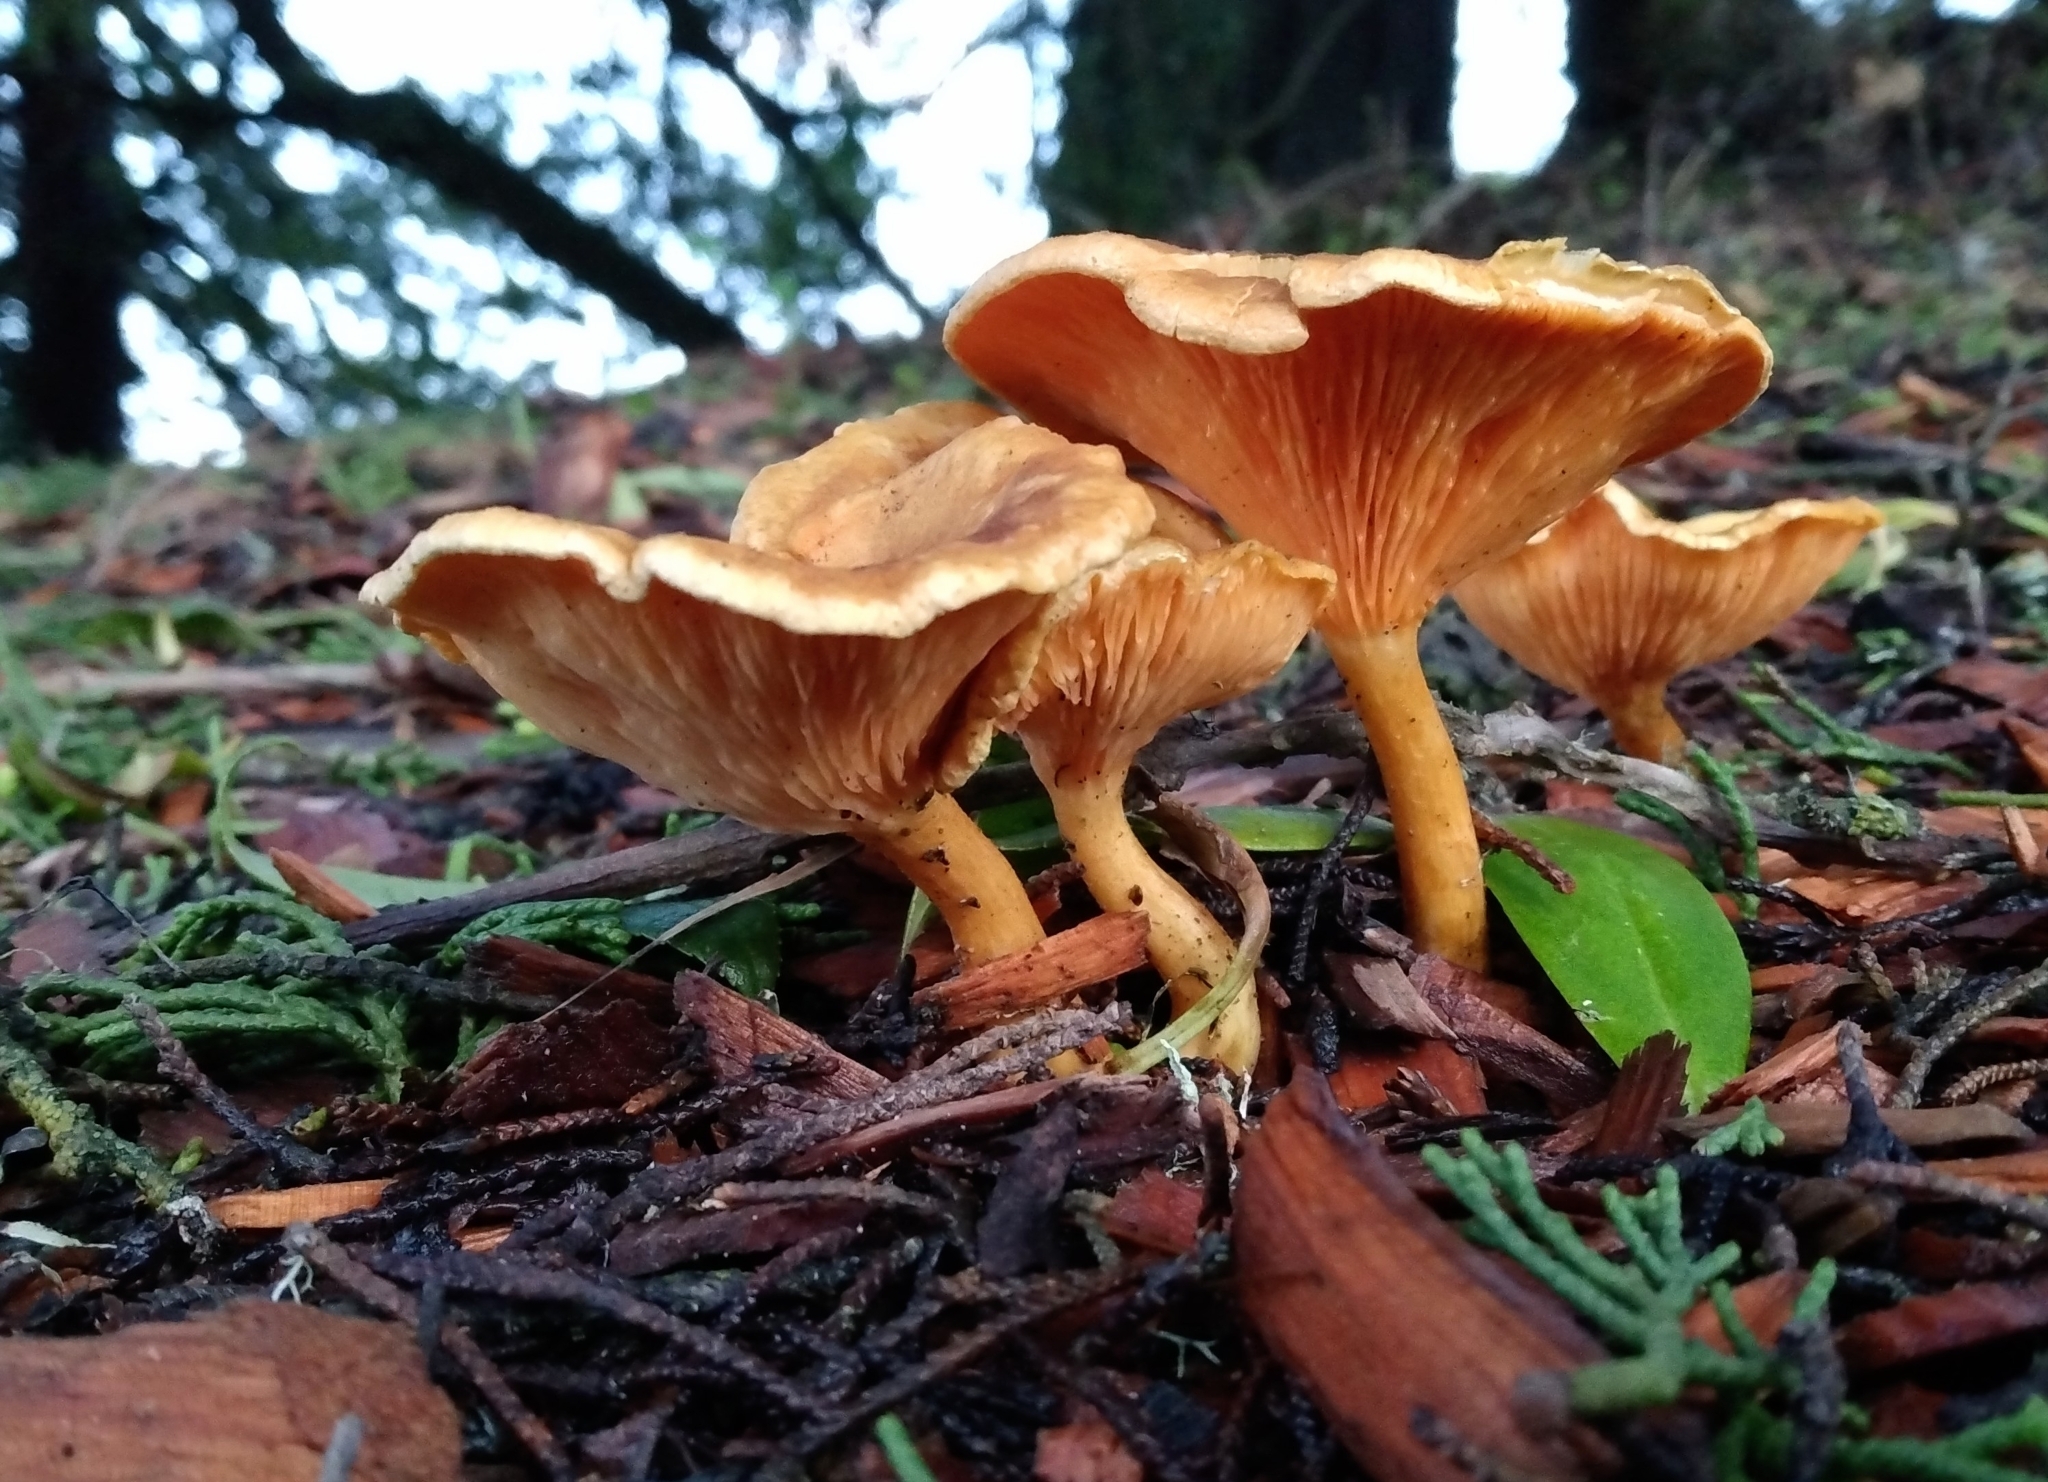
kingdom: Fungi
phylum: Basidiomycota
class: Agaricomycetes
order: Boletales
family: Hygrophoropsidaceae
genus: Hygrophoropsis
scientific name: Hygrophoropsis aurantiaca
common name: False chanterelle
